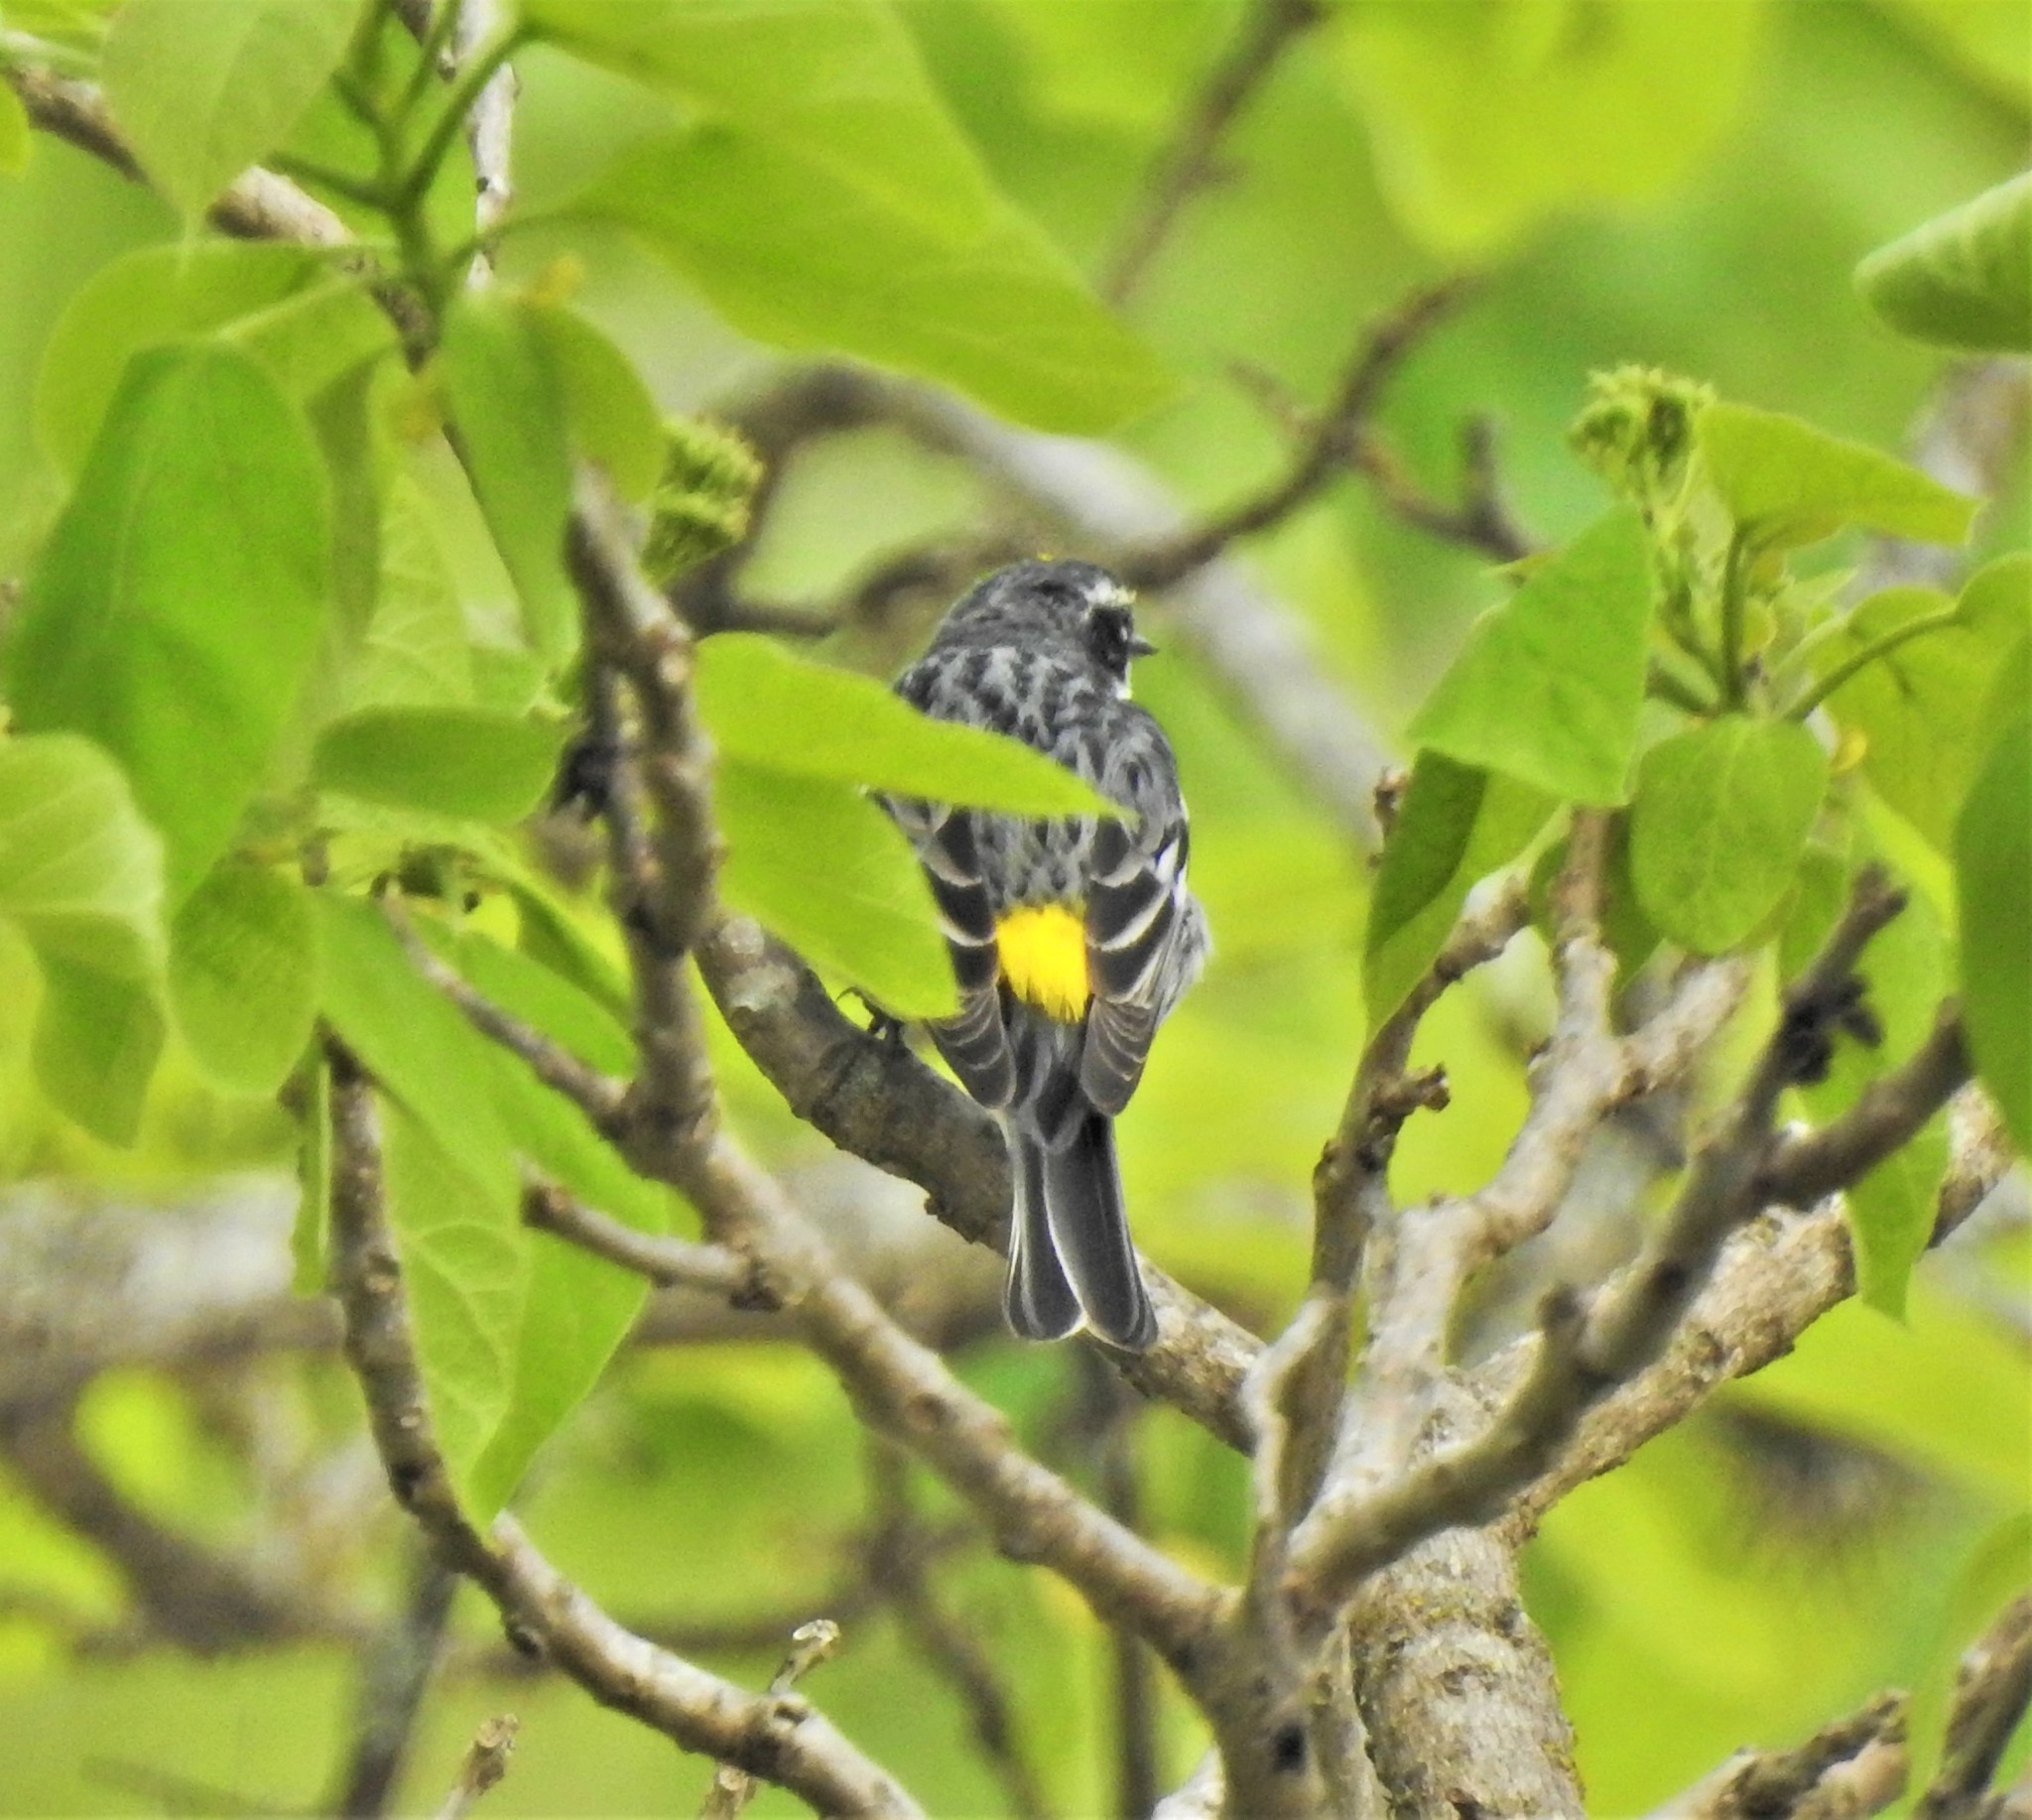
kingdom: Animalia
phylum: Chordata
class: Aves
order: Passeriformes
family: Parulidae
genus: Setophaga
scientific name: Setophaga coronata
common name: Myrtle warbler
